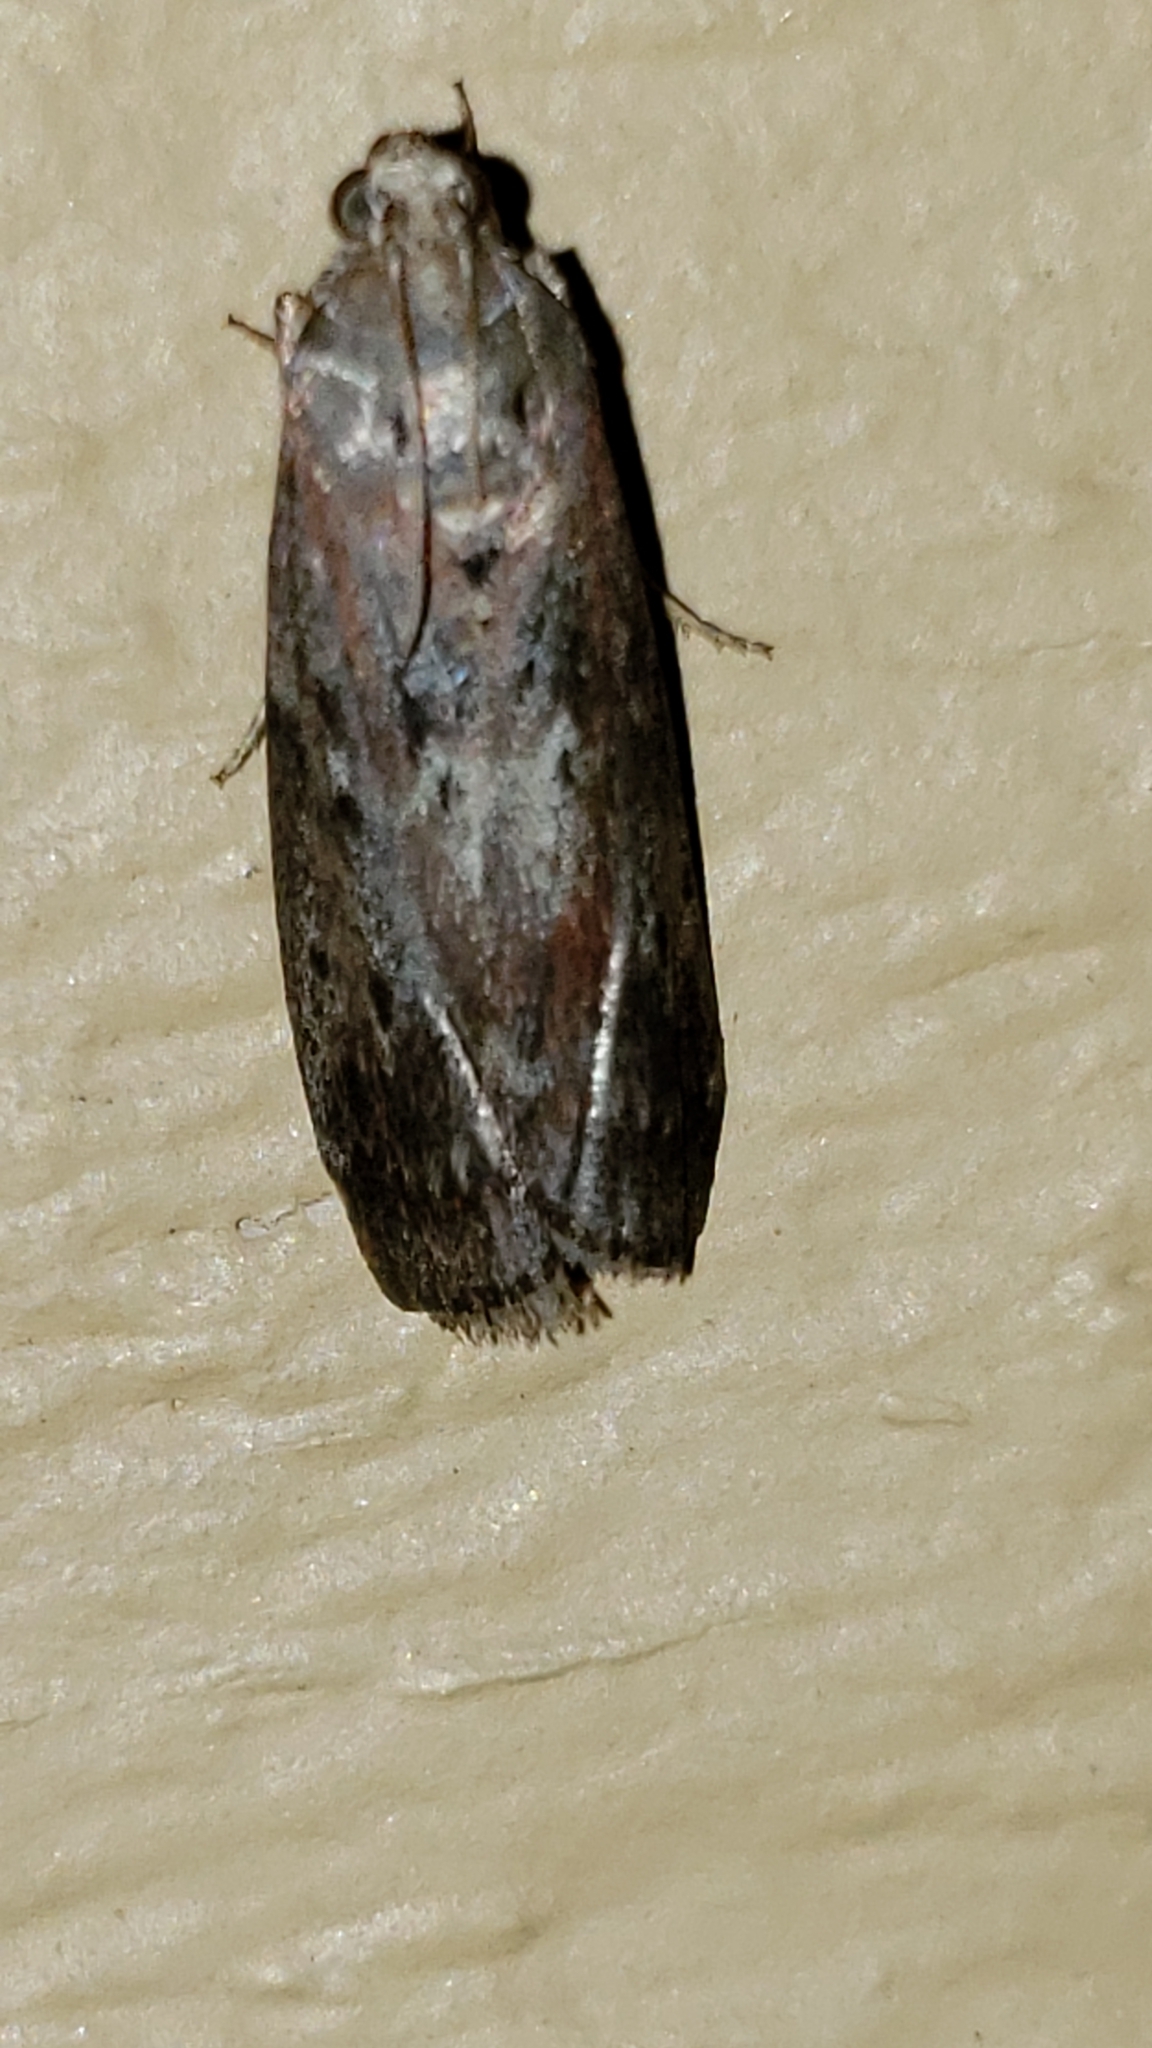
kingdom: Animalia
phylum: Arthropoda
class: Insecta
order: Lepidoptera
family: Pyralidae
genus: Sciota
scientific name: Sciota virgatella
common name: Black-spotted leafroller moth
